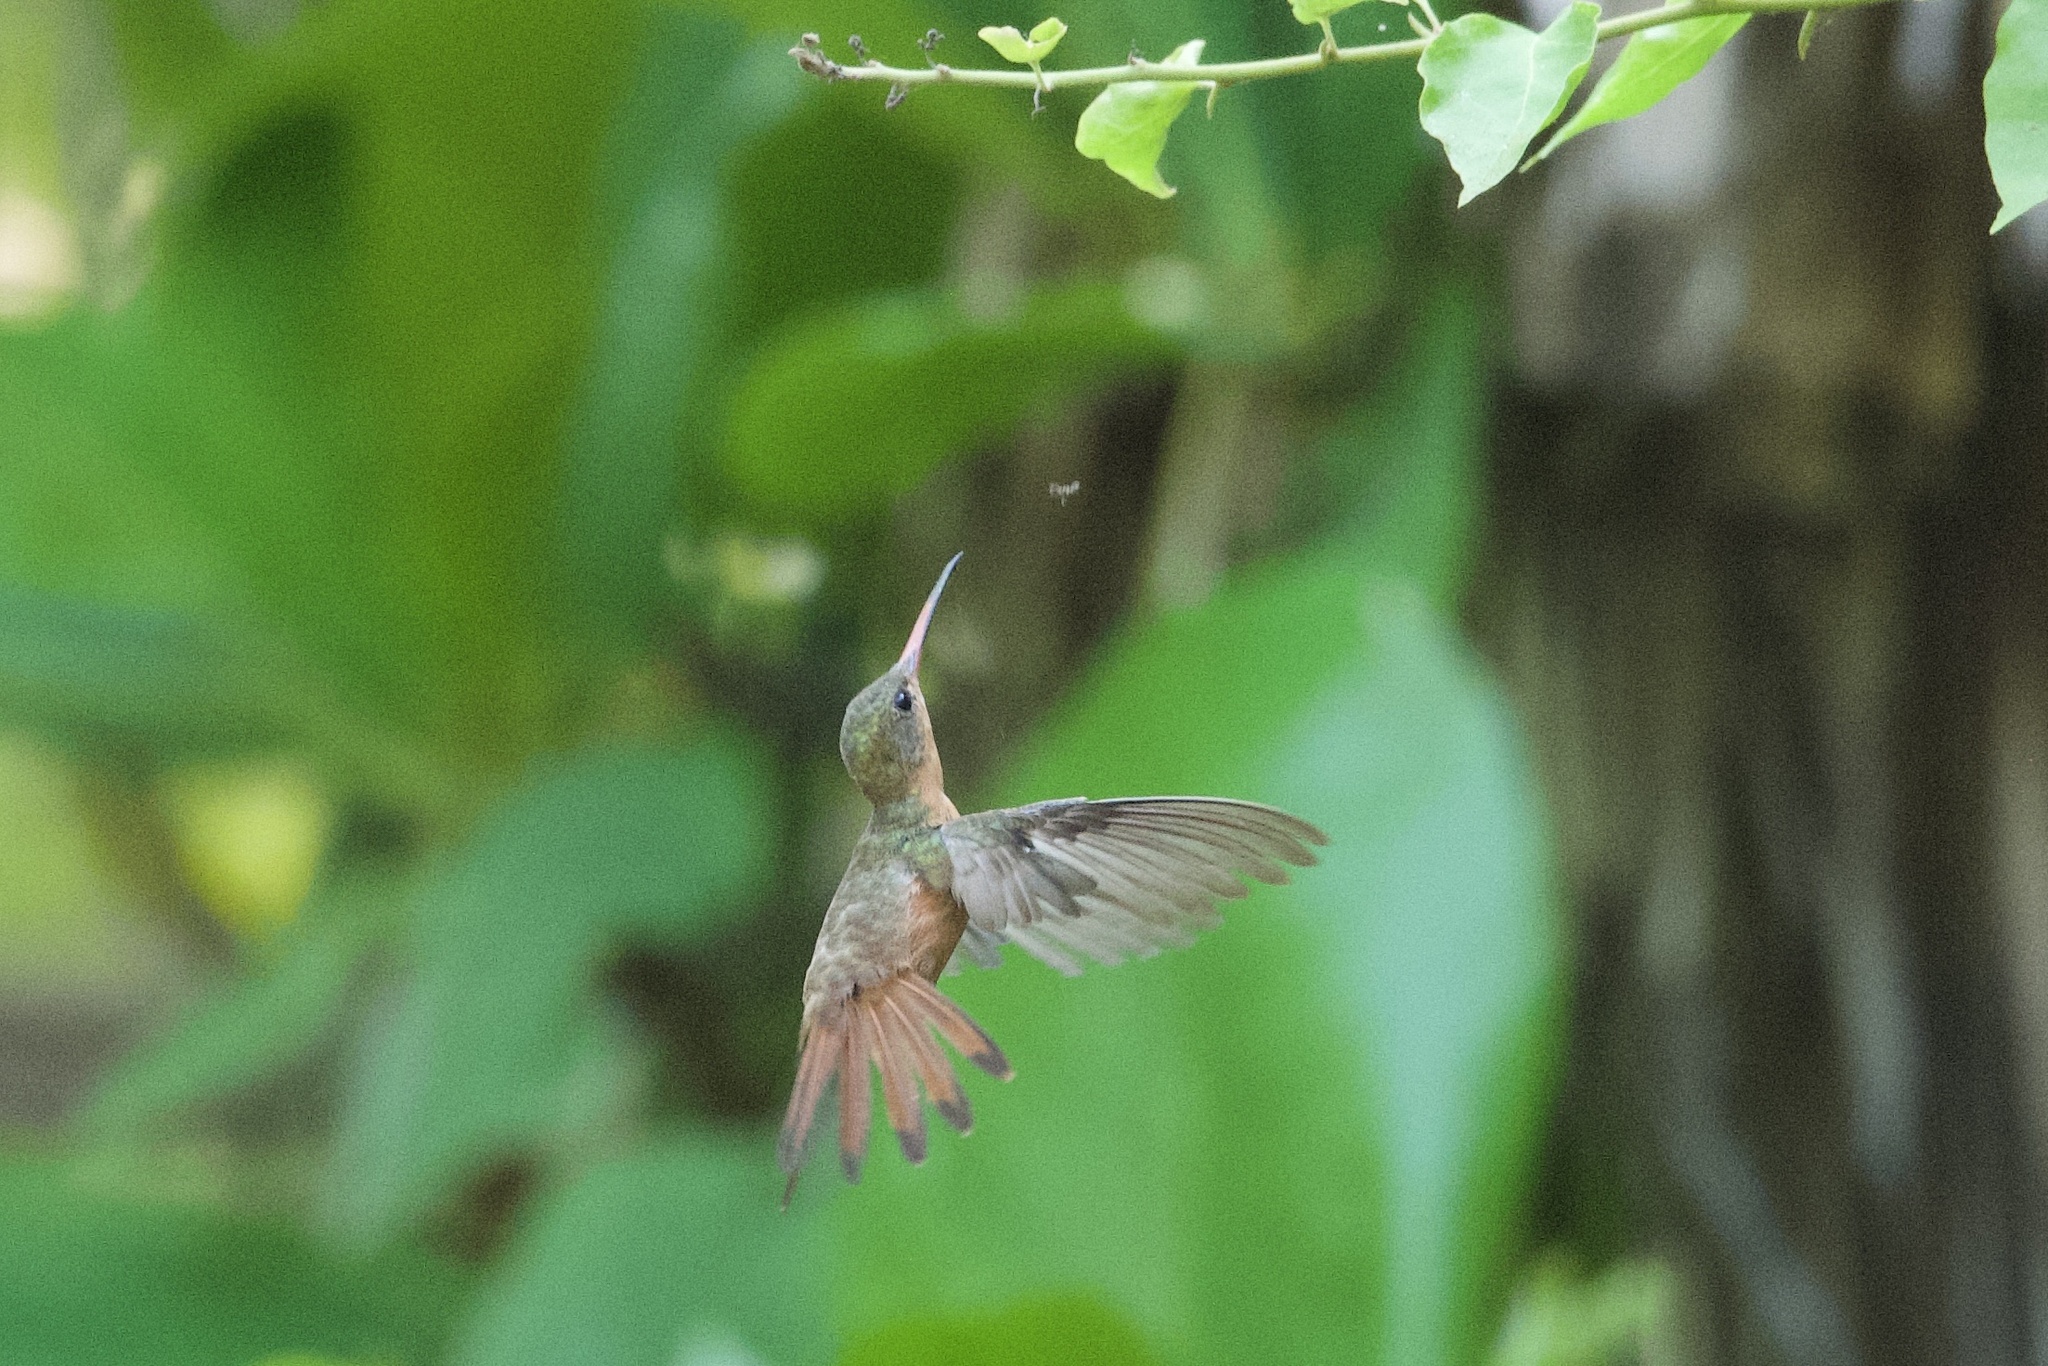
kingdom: Animalia
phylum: Chordata
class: Aves
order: Apodiformes
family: Trochilidae
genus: Amazilia
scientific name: Amazilia rutila
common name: Cinnamon hummingbird
